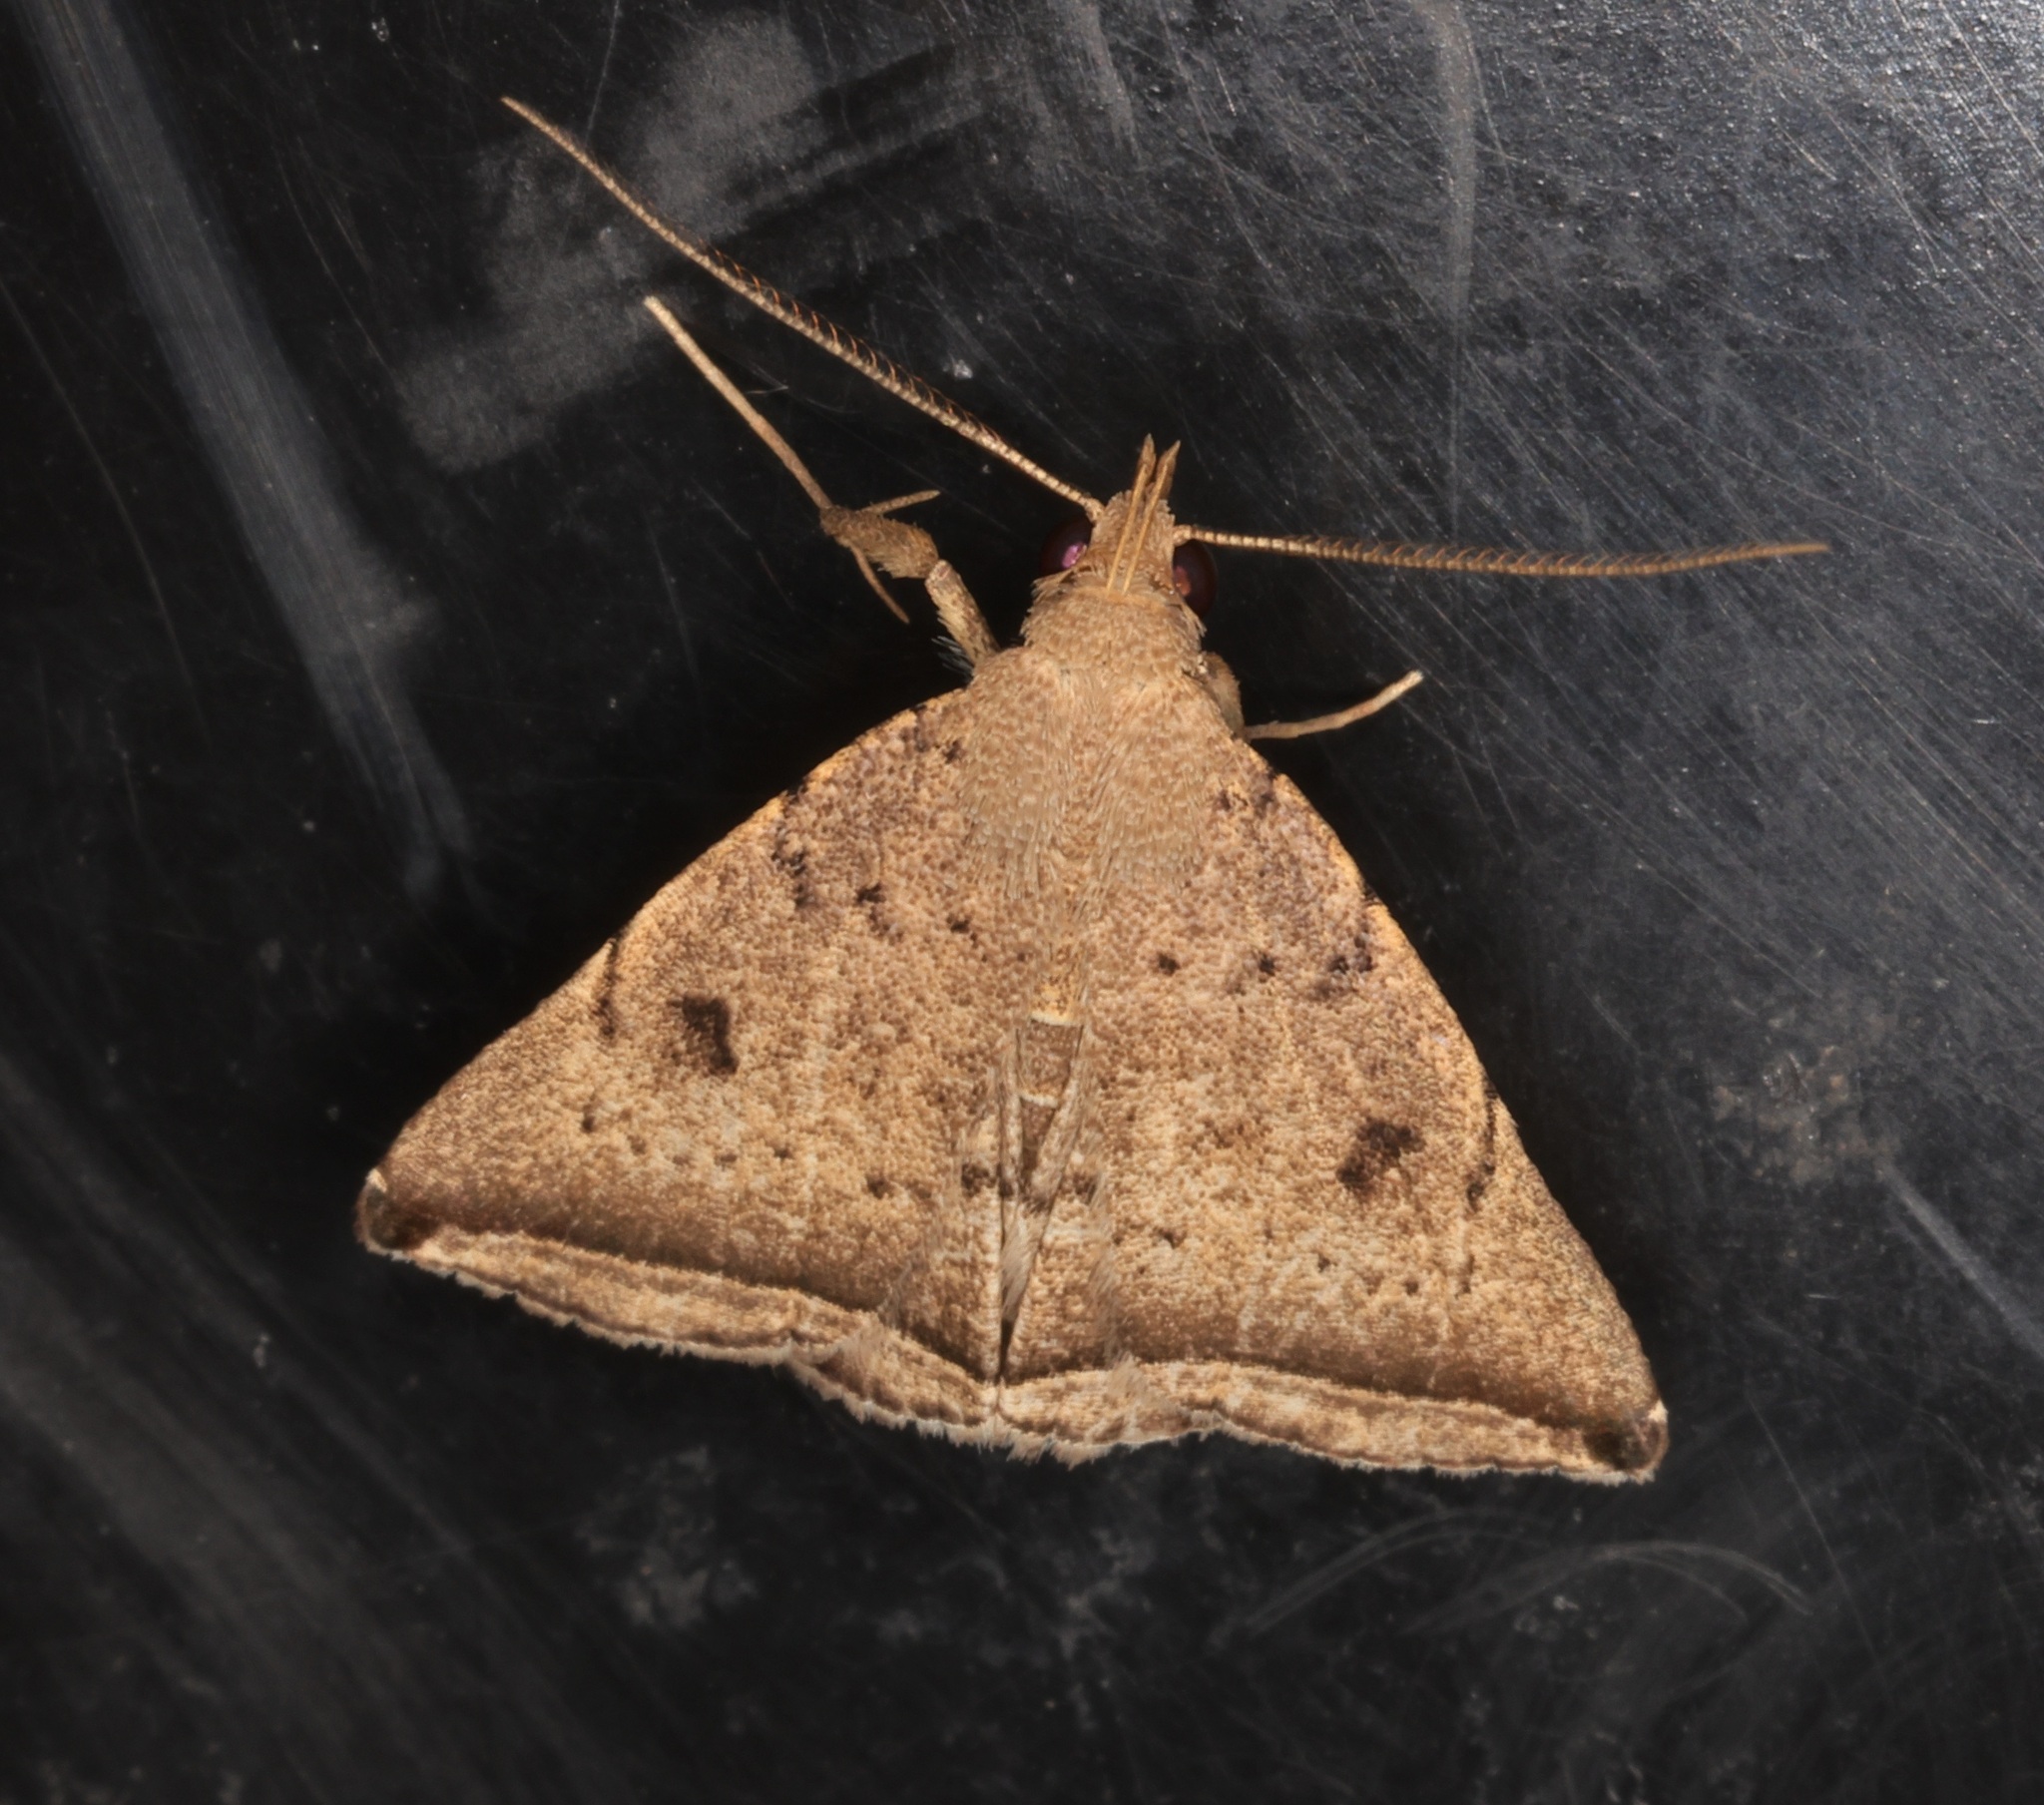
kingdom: Animalia
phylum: Arthropoda
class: Insecta
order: Lepidoptera
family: Erebidae
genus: Lysimelia
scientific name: Lysimelia lucida
